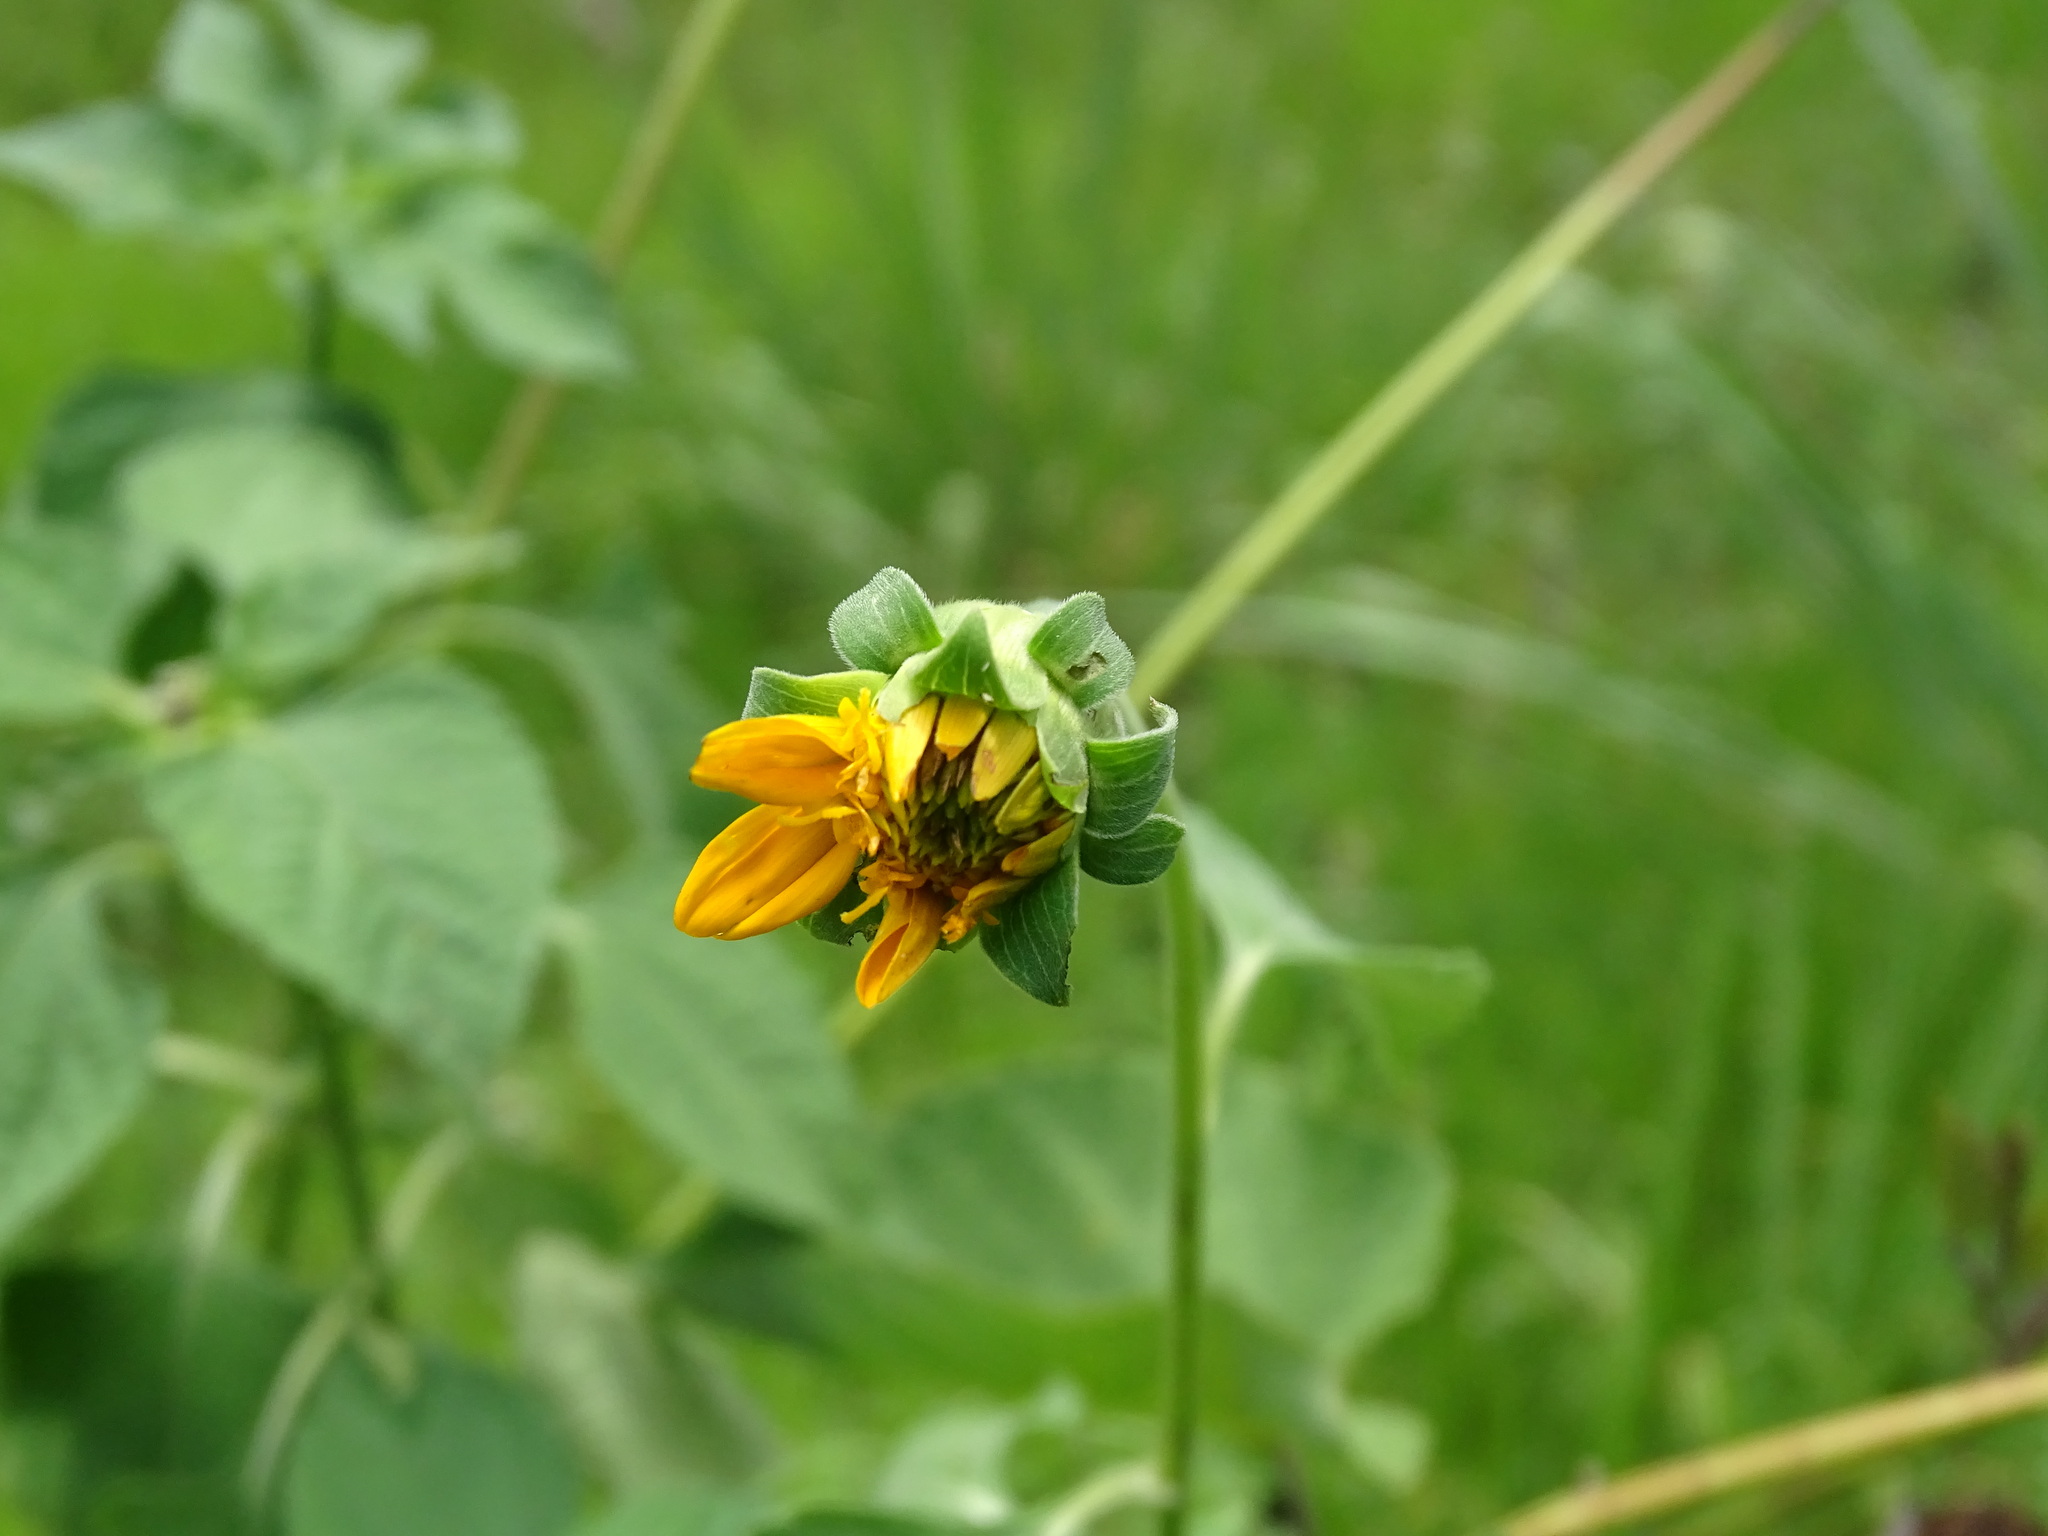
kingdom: Plantae
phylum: Tracheophyta
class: Magnoliopsida
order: Asterales
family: Asteraceae
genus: Tithonia
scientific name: Tithonia rotundifolia
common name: Sunflower
